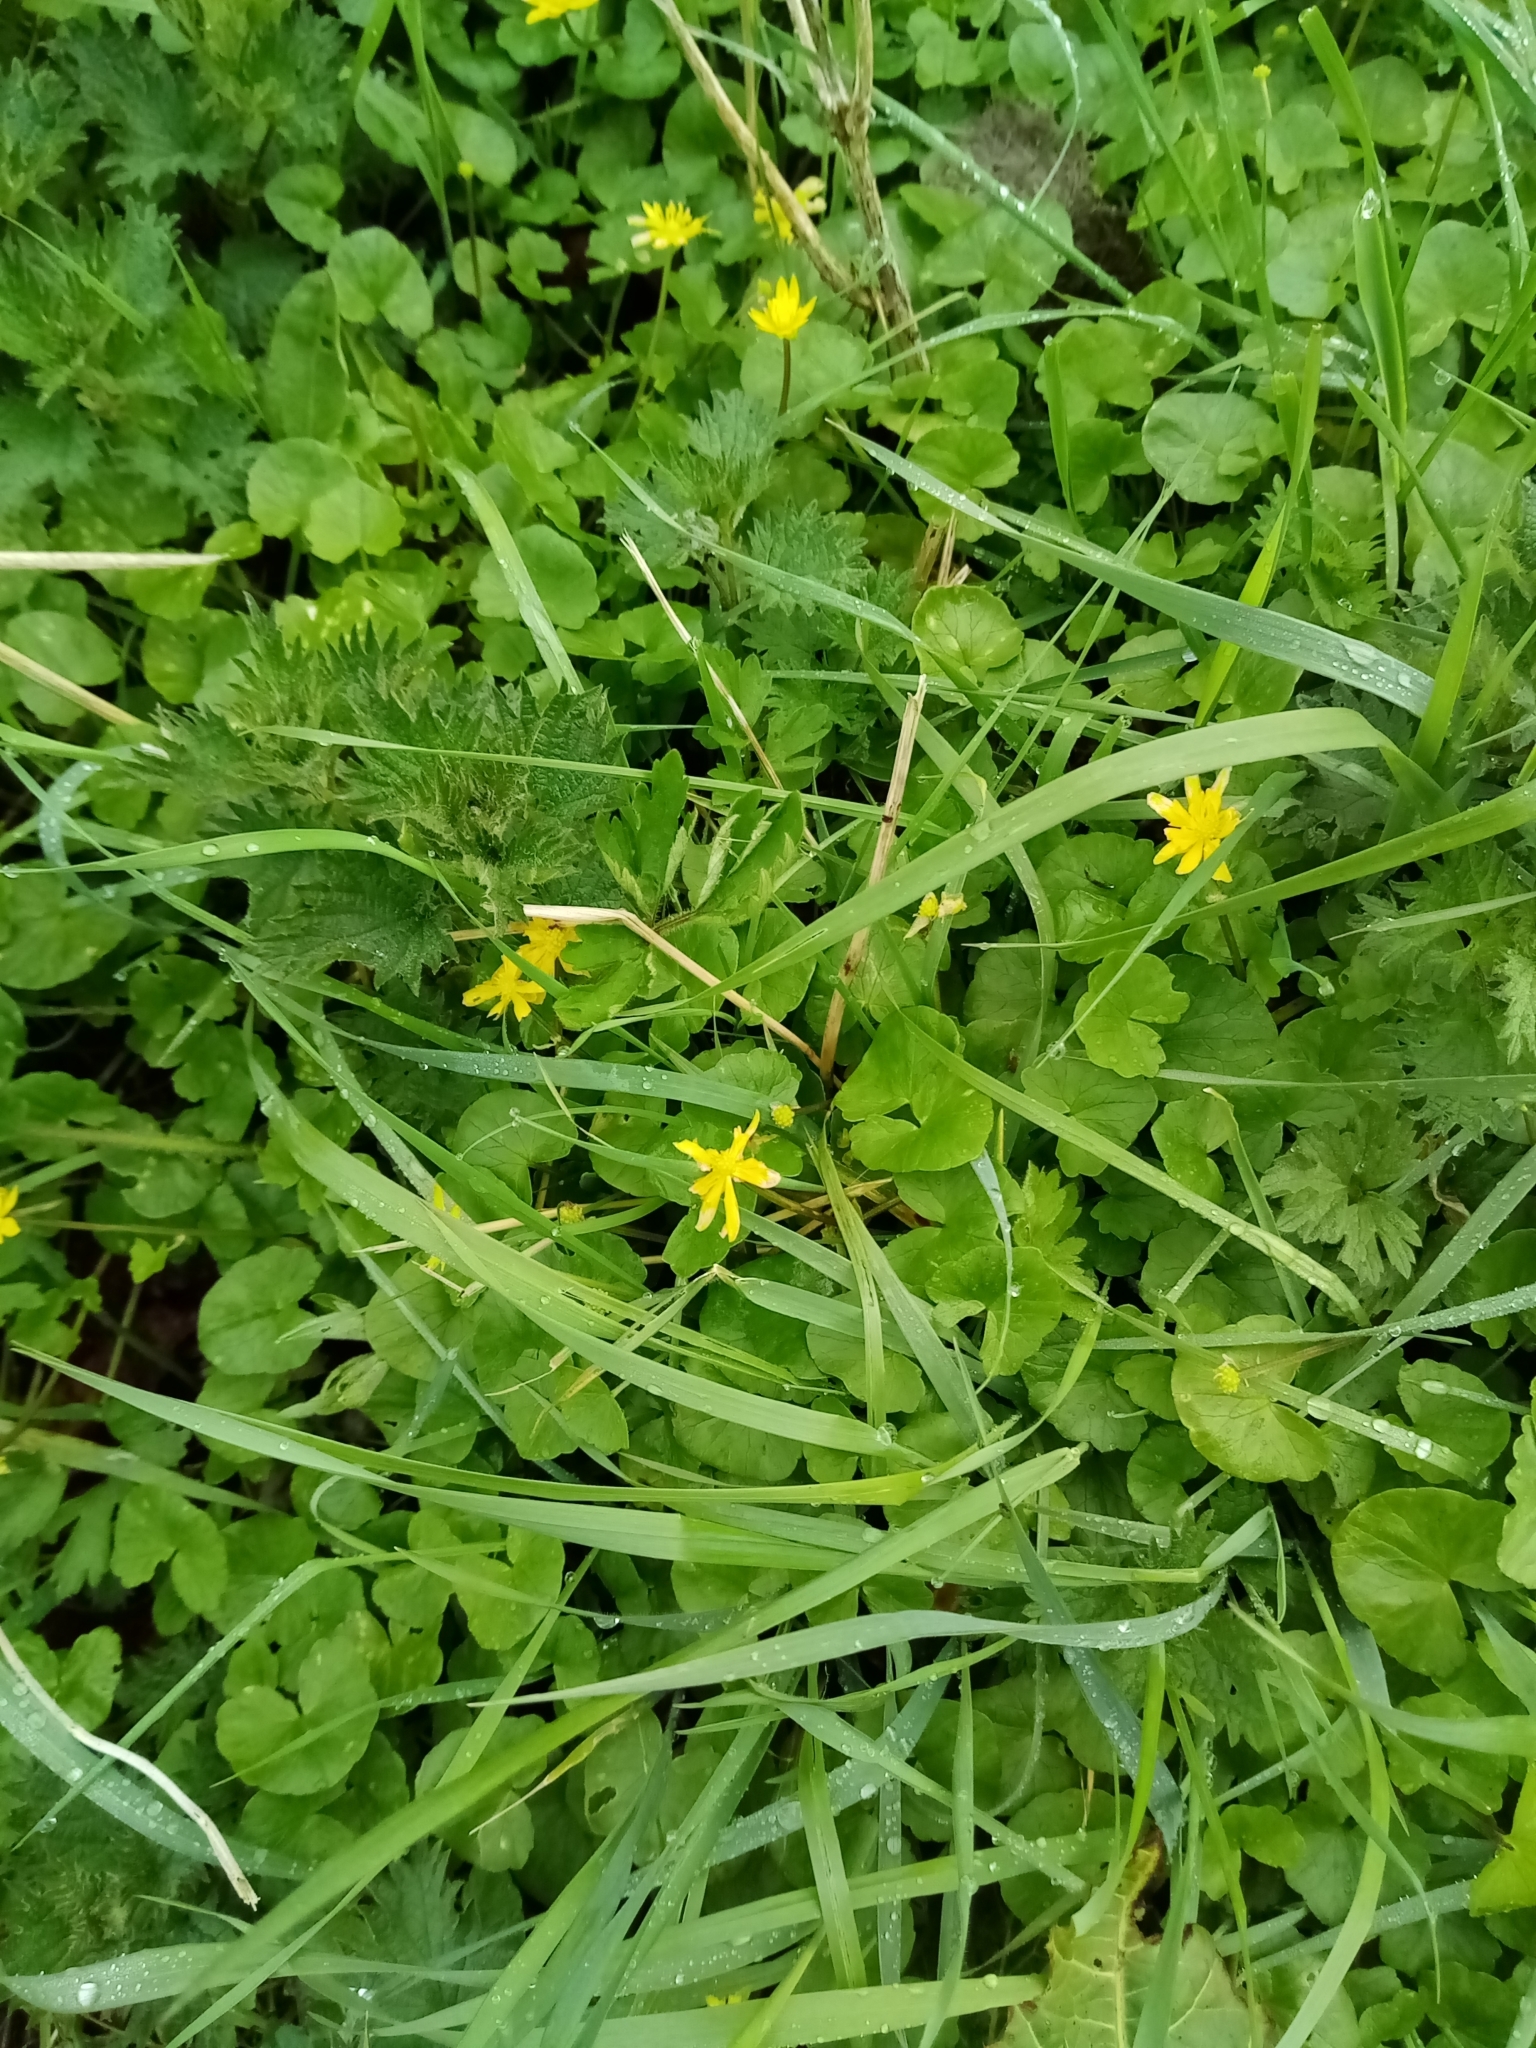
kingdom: Plantae
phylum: Tracheophyta
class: Magnoliopsida
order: Ranunculales
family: Ranunculaceae
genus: Ficaria
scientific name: Ficaria verna
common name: Lesser celandine
